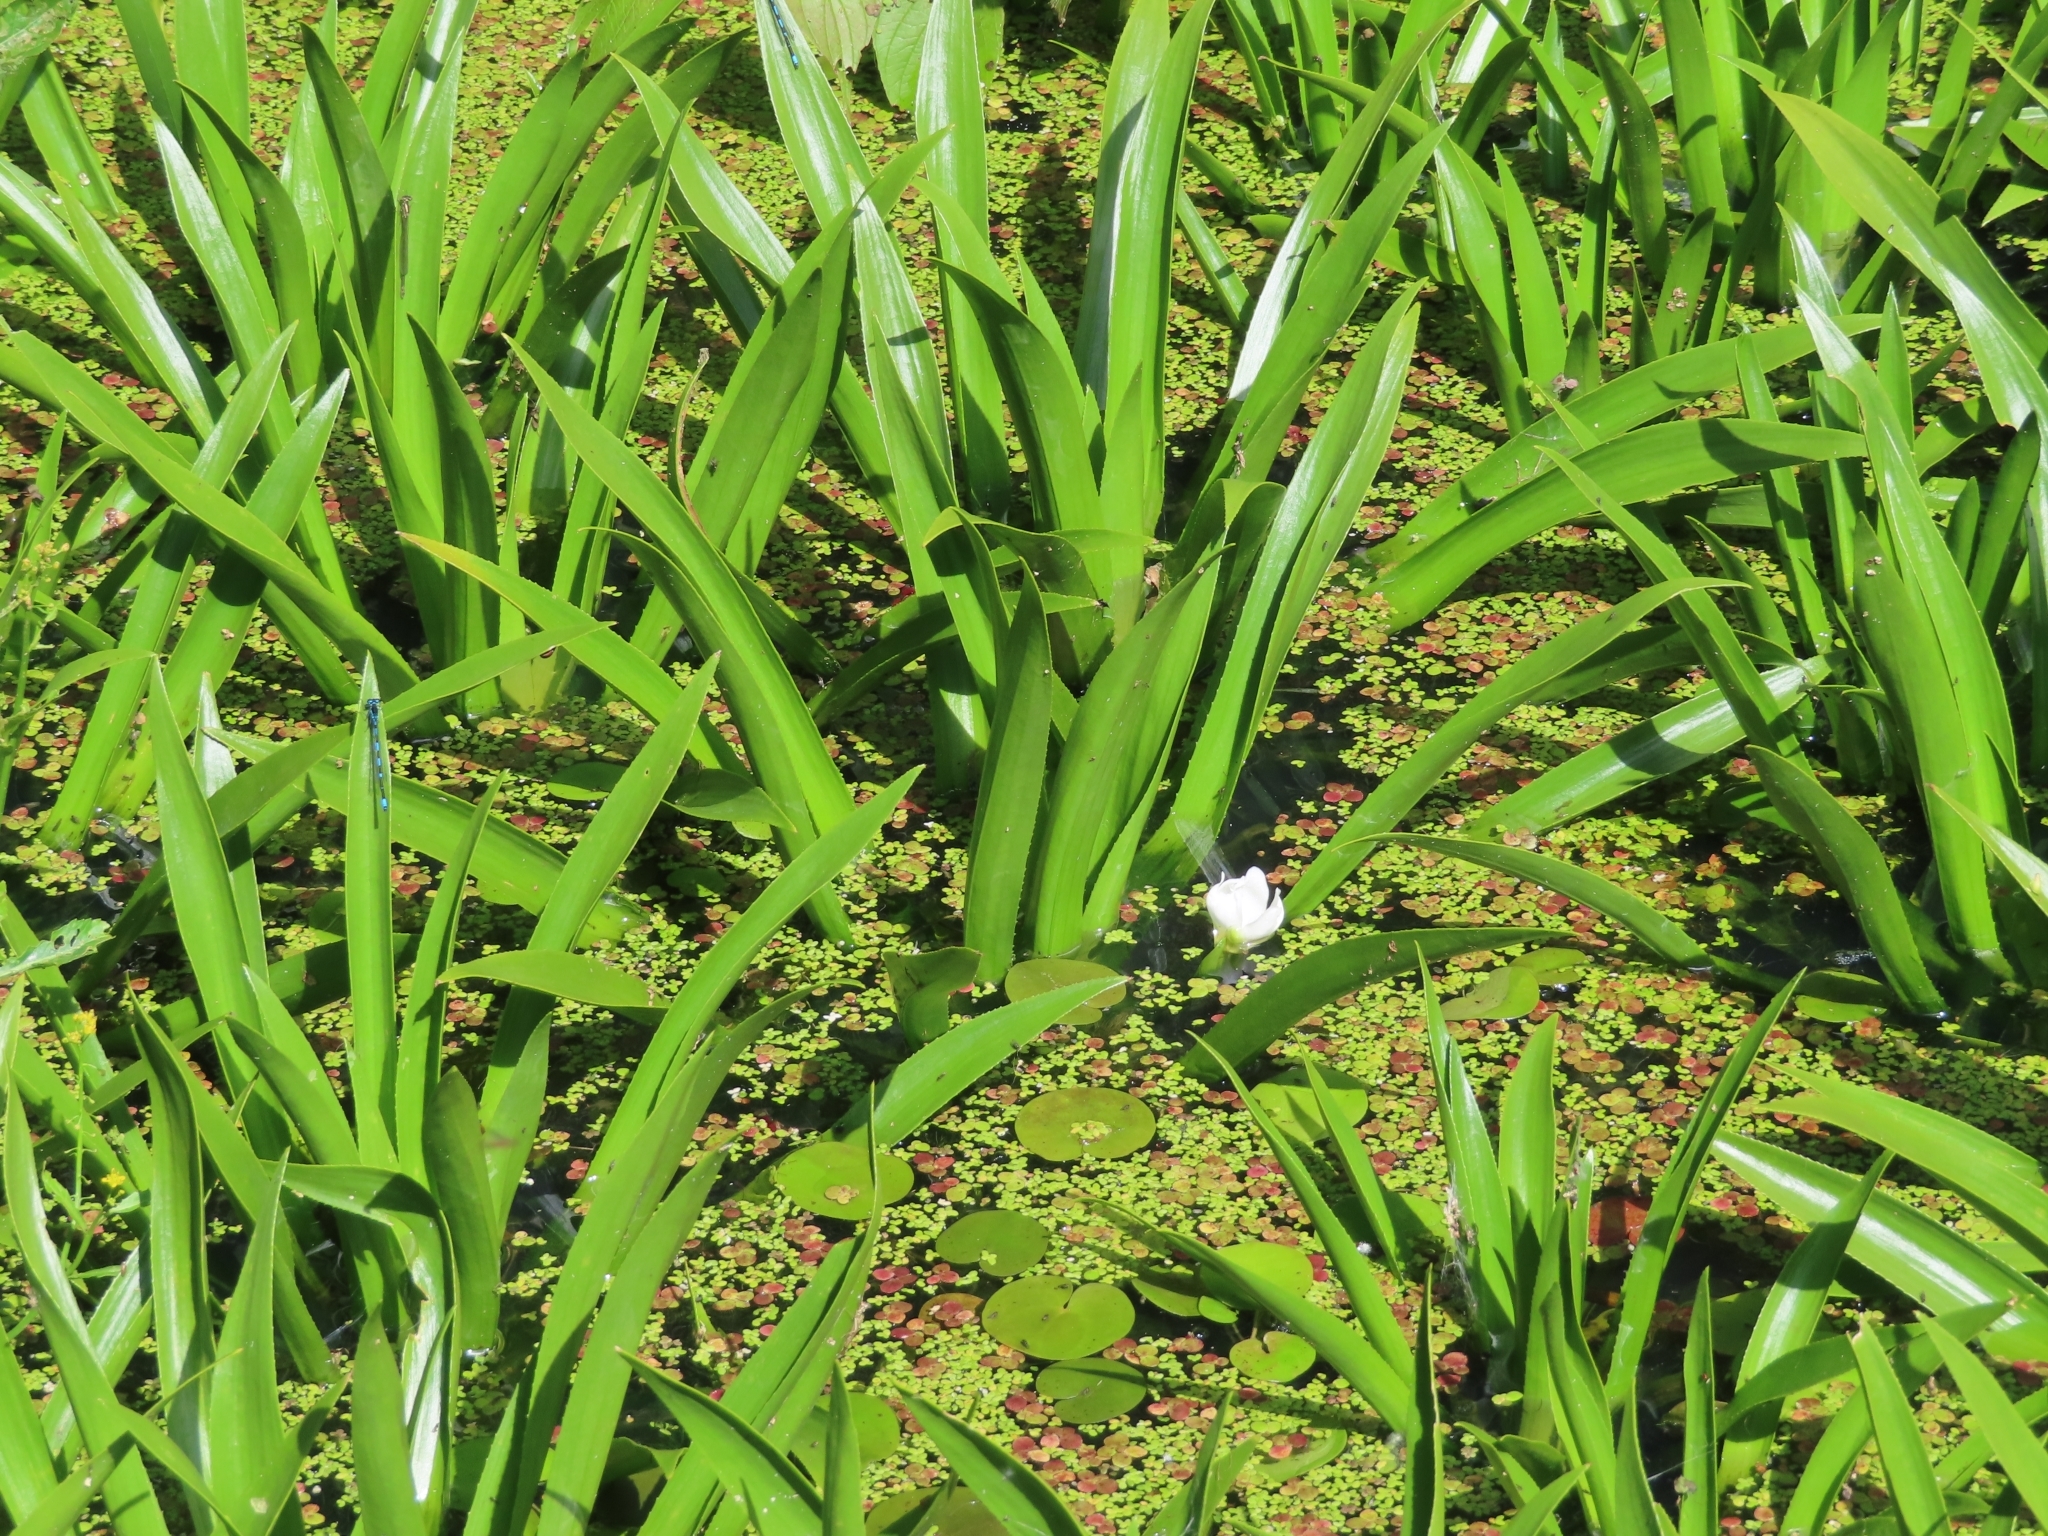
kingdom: Plantae
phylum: Tracheophyta
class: Liliopsida
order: Alismatales
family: Hydrocharitaceae
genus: Stratiotes
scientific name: Stratiotes aloides
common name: Water-soldier
